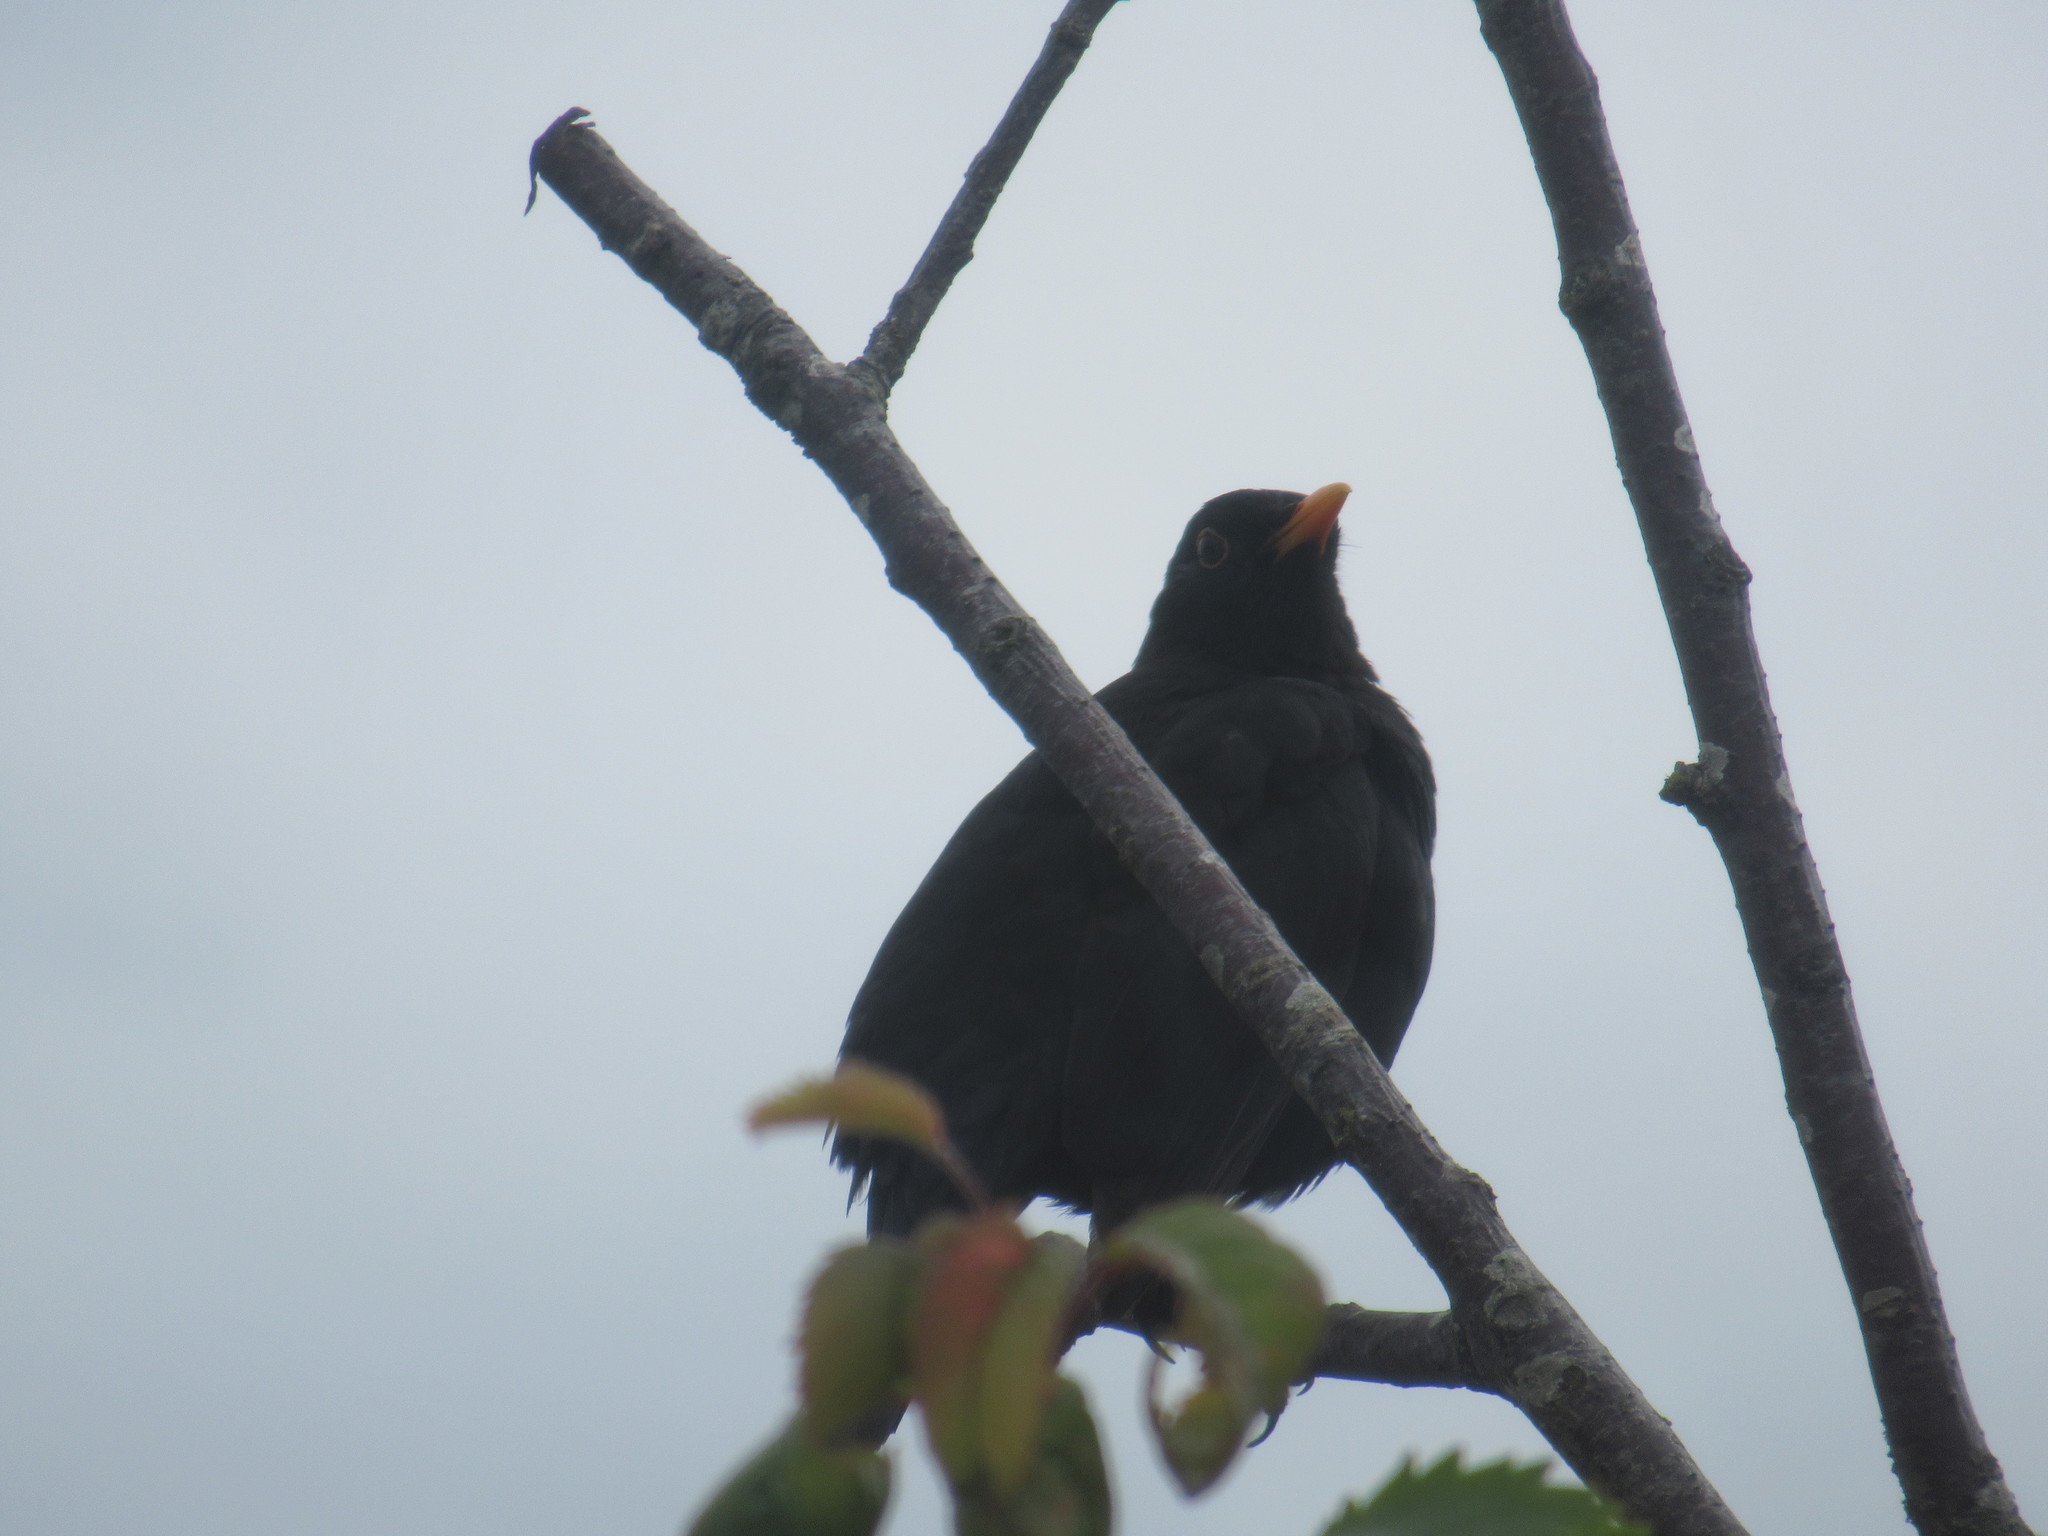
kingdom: Animalia
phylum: Chordata
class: Aves
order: Passeriformes
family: Turdidae
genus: Turdus
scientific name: Turdus merula
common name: Common blackbird
